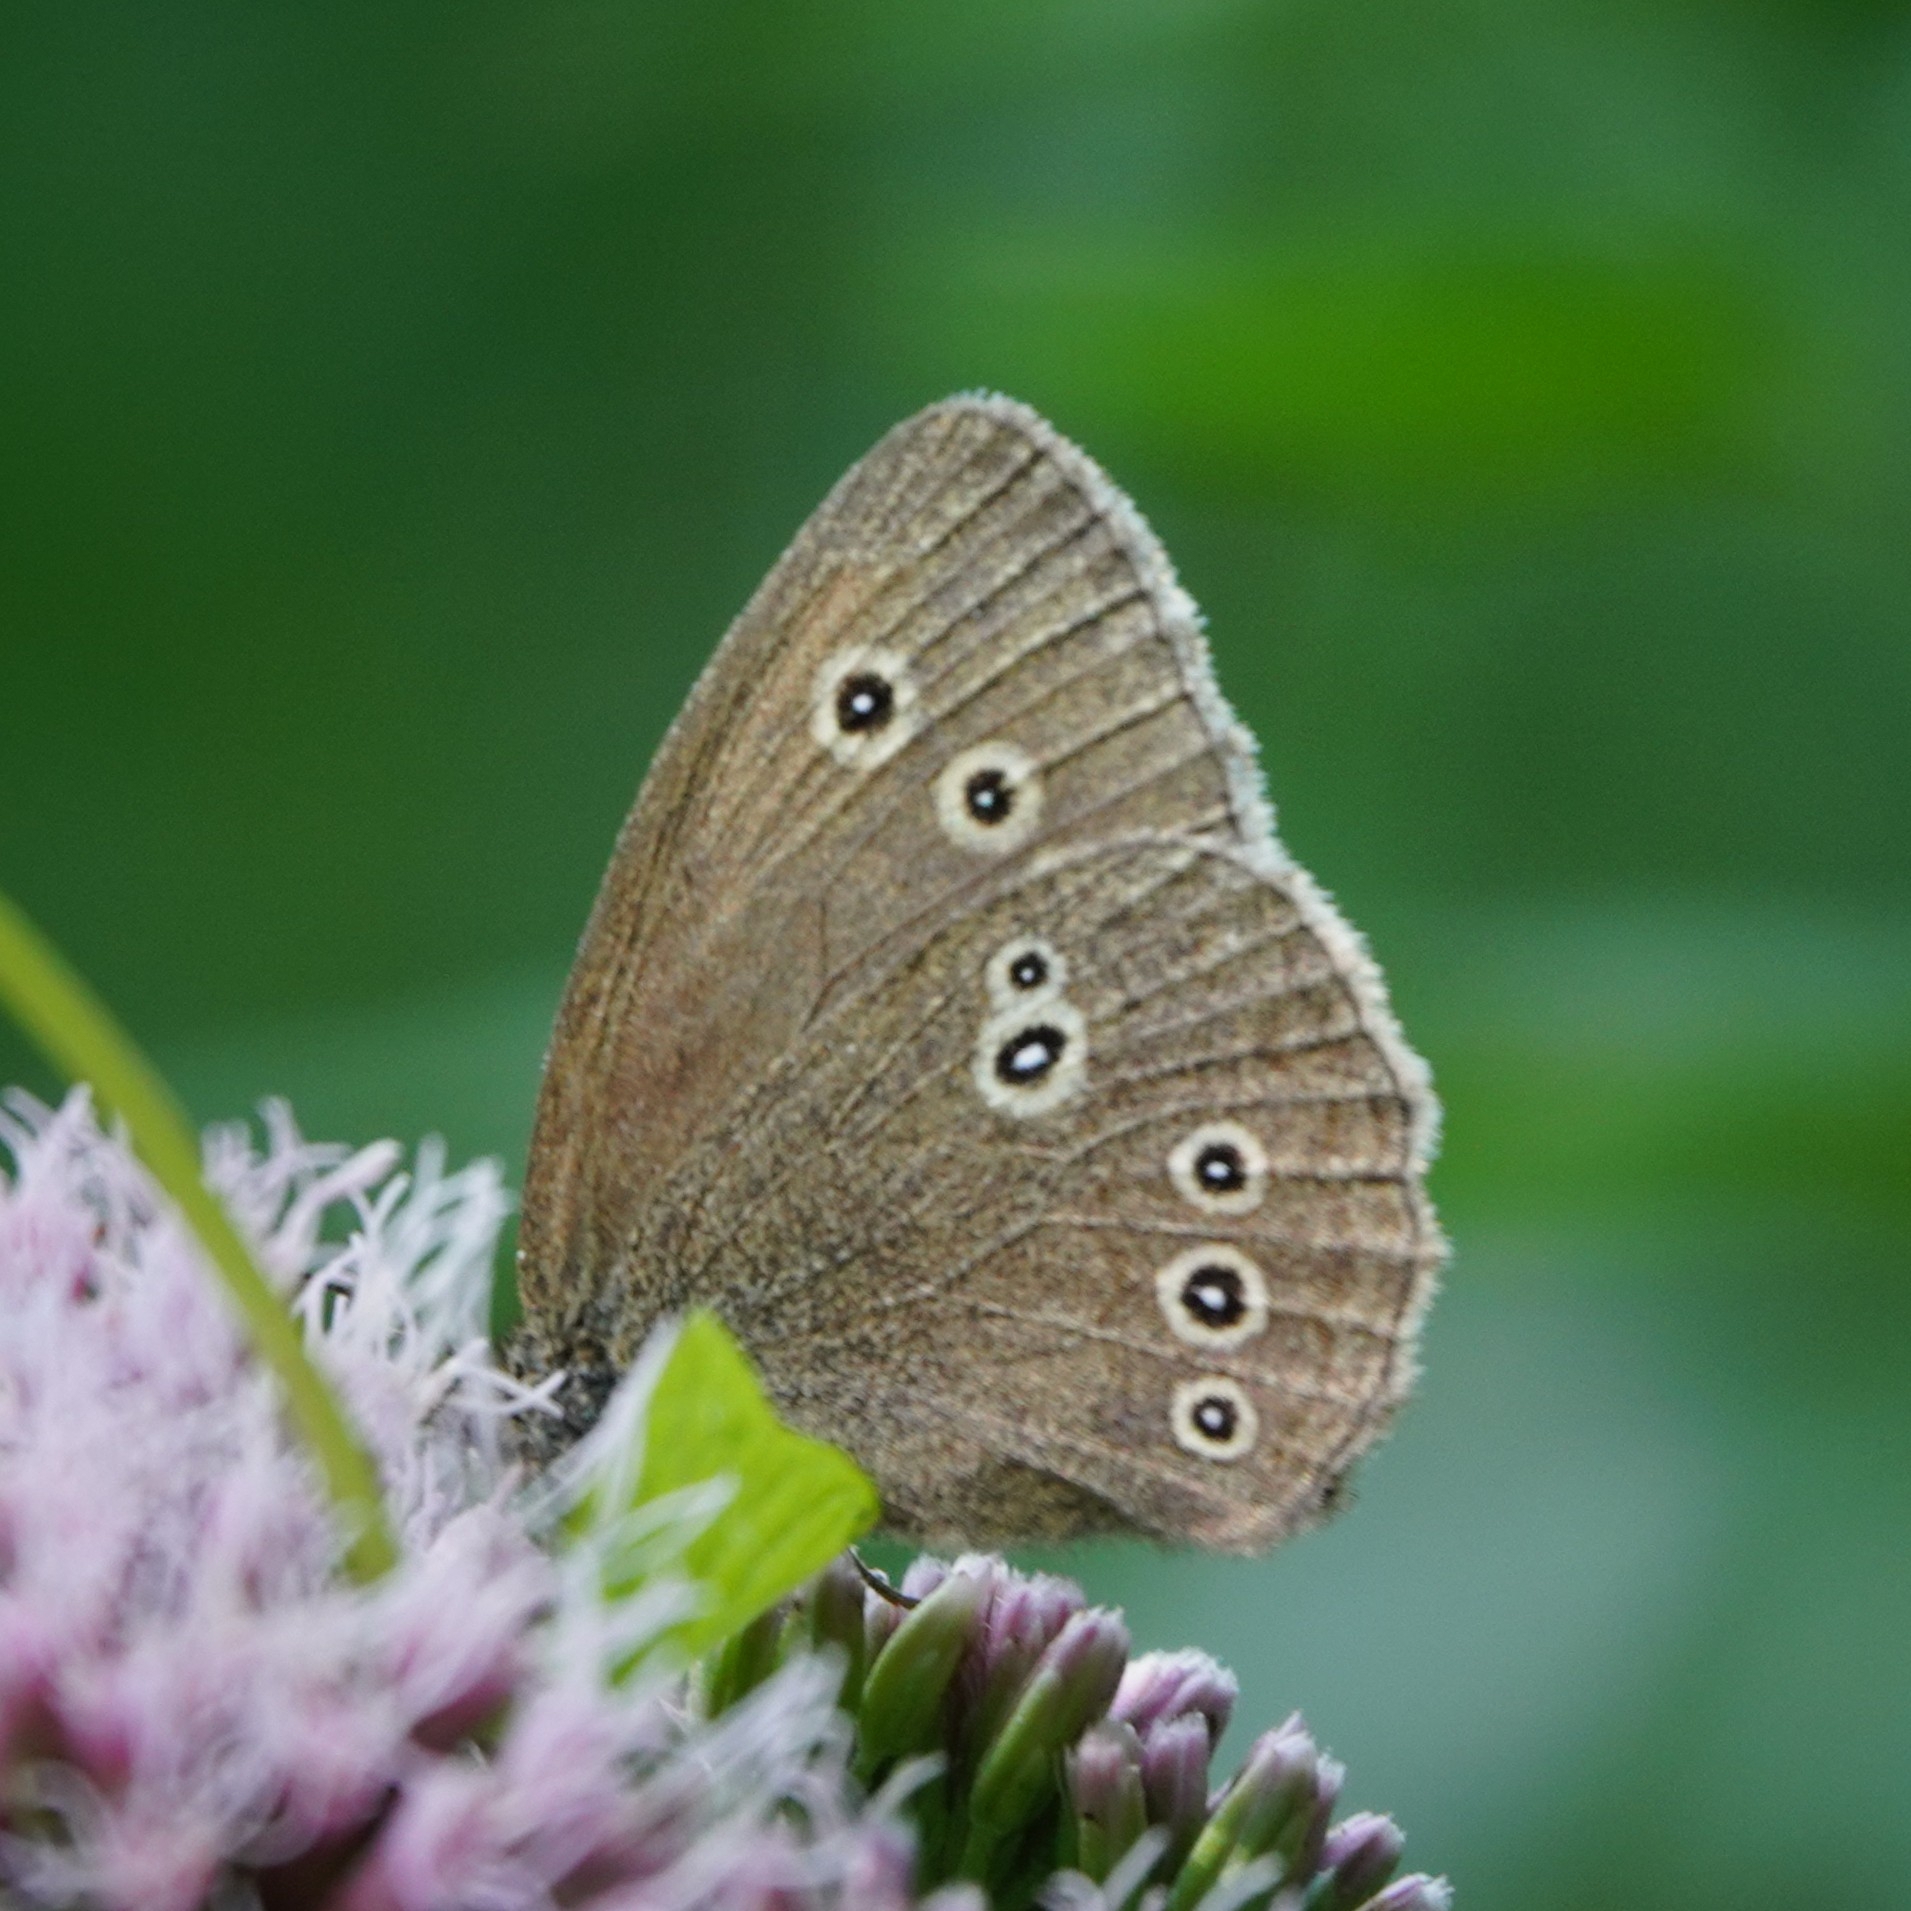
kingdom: Animalia
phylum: Arthropoda
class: Insecta
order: Lepidoptera
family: Nymphalidae
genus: Aphantopus
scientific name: Aphantopus hyperantus
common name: Ringlet
